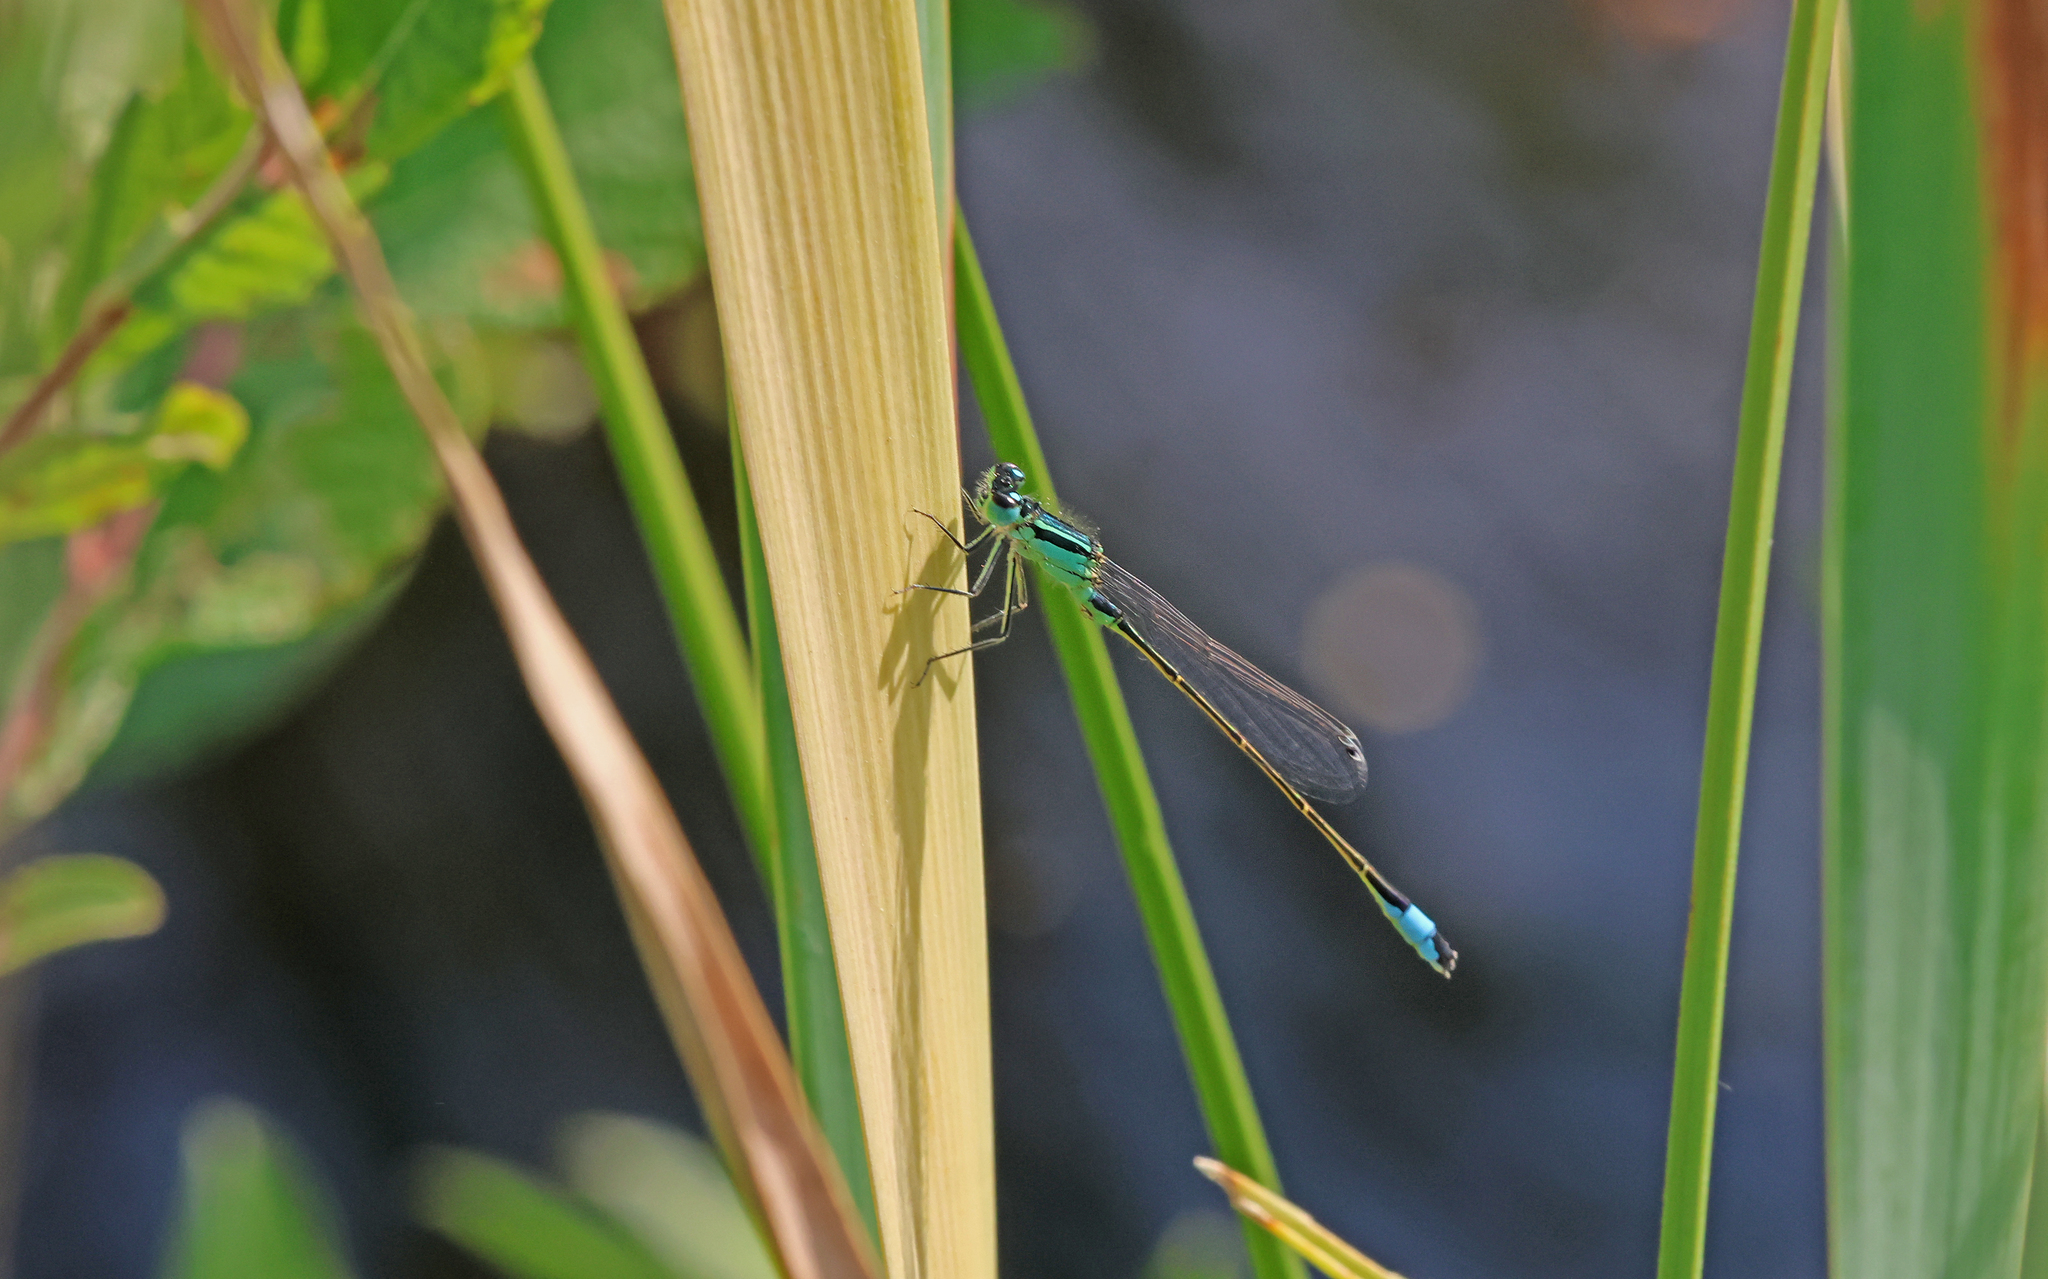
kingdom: Animalia
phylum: Arthropoda
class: Insecta
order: Odonata
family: Coenagrionidae
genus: Ischnura
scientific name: Ischnura elegans
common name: Blue-tailed damselfly
